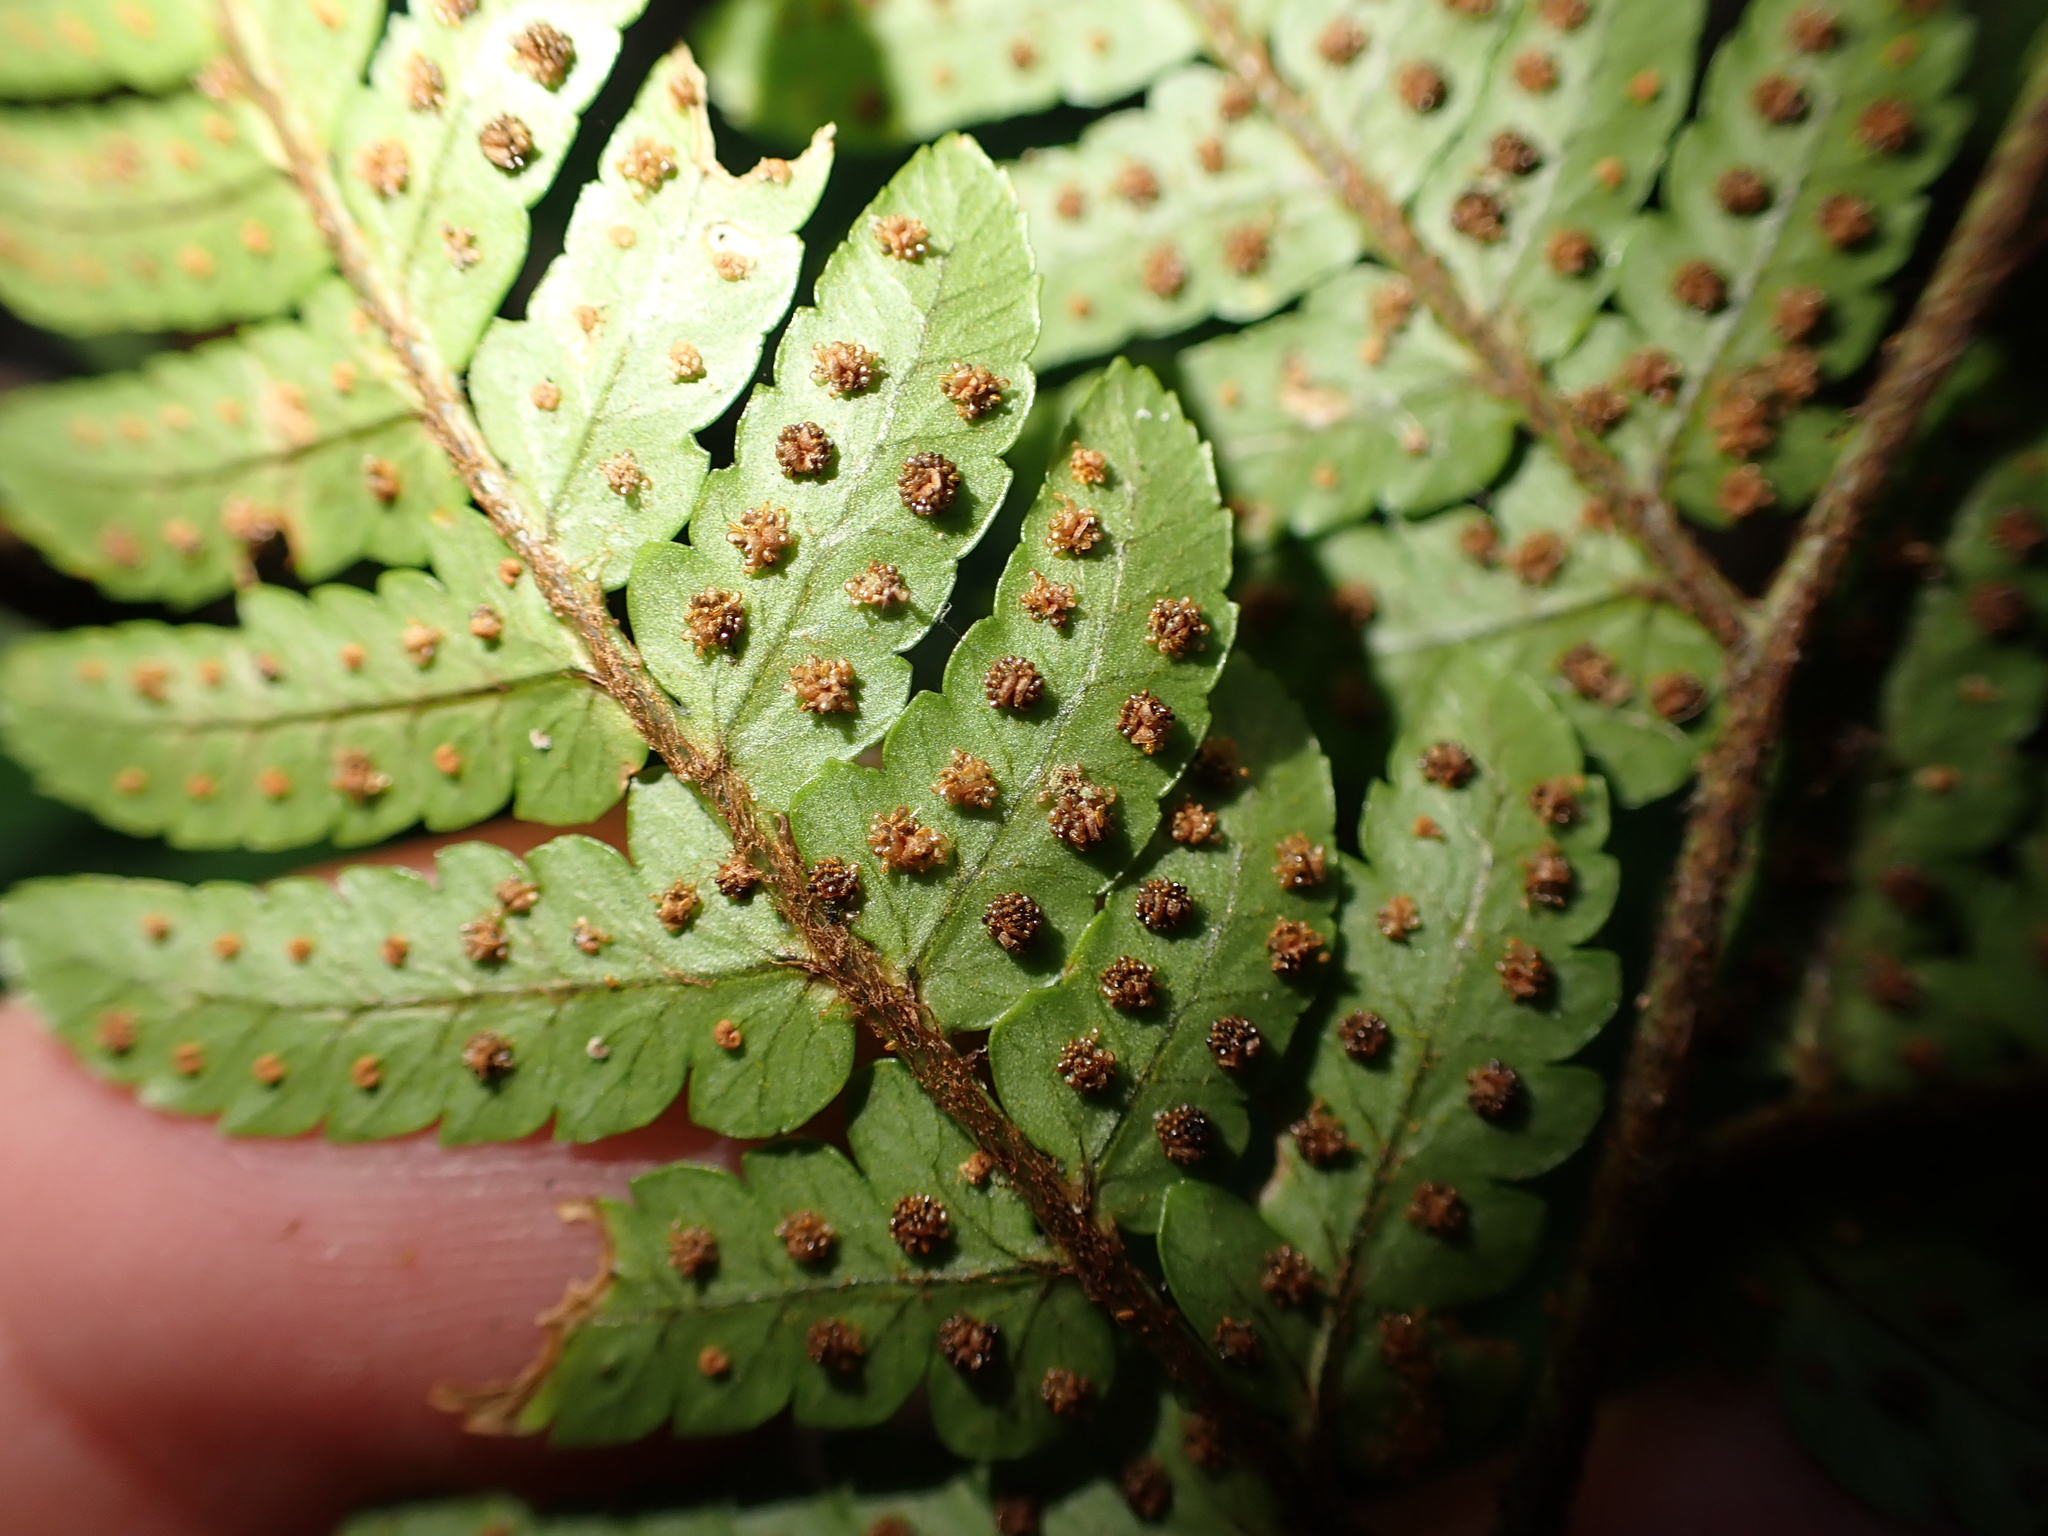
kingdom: Plantae
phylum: Tracheophyta
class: Polypodiopsida
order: Polypodiales
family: Dryopteridaceae
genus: Dryopteris
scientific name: Dryopteris sordidipes
